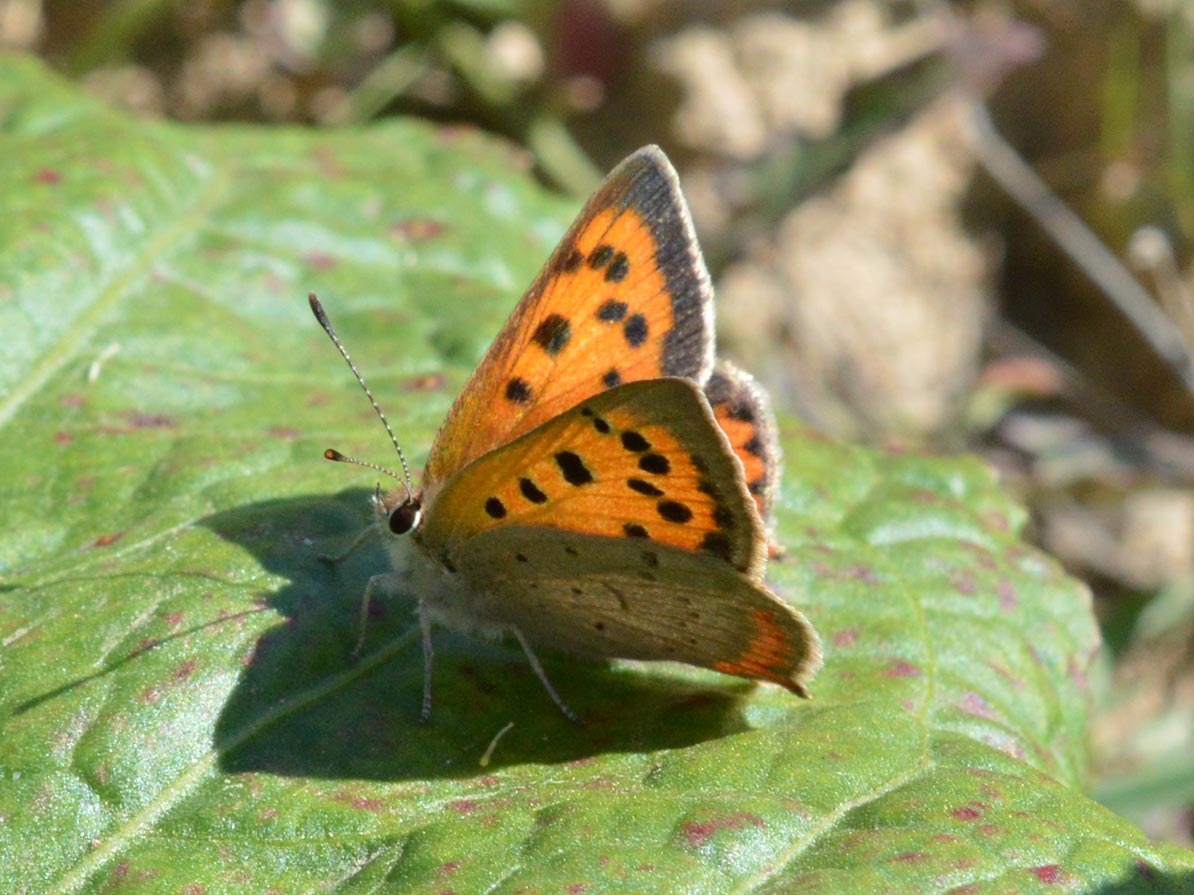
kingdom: Animalia
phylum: Arthropoda
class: Insecta
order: Lepidoptera
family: Lycaenidae
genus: Lycaena
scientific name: Lycaena phlaeas
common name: Small copper
